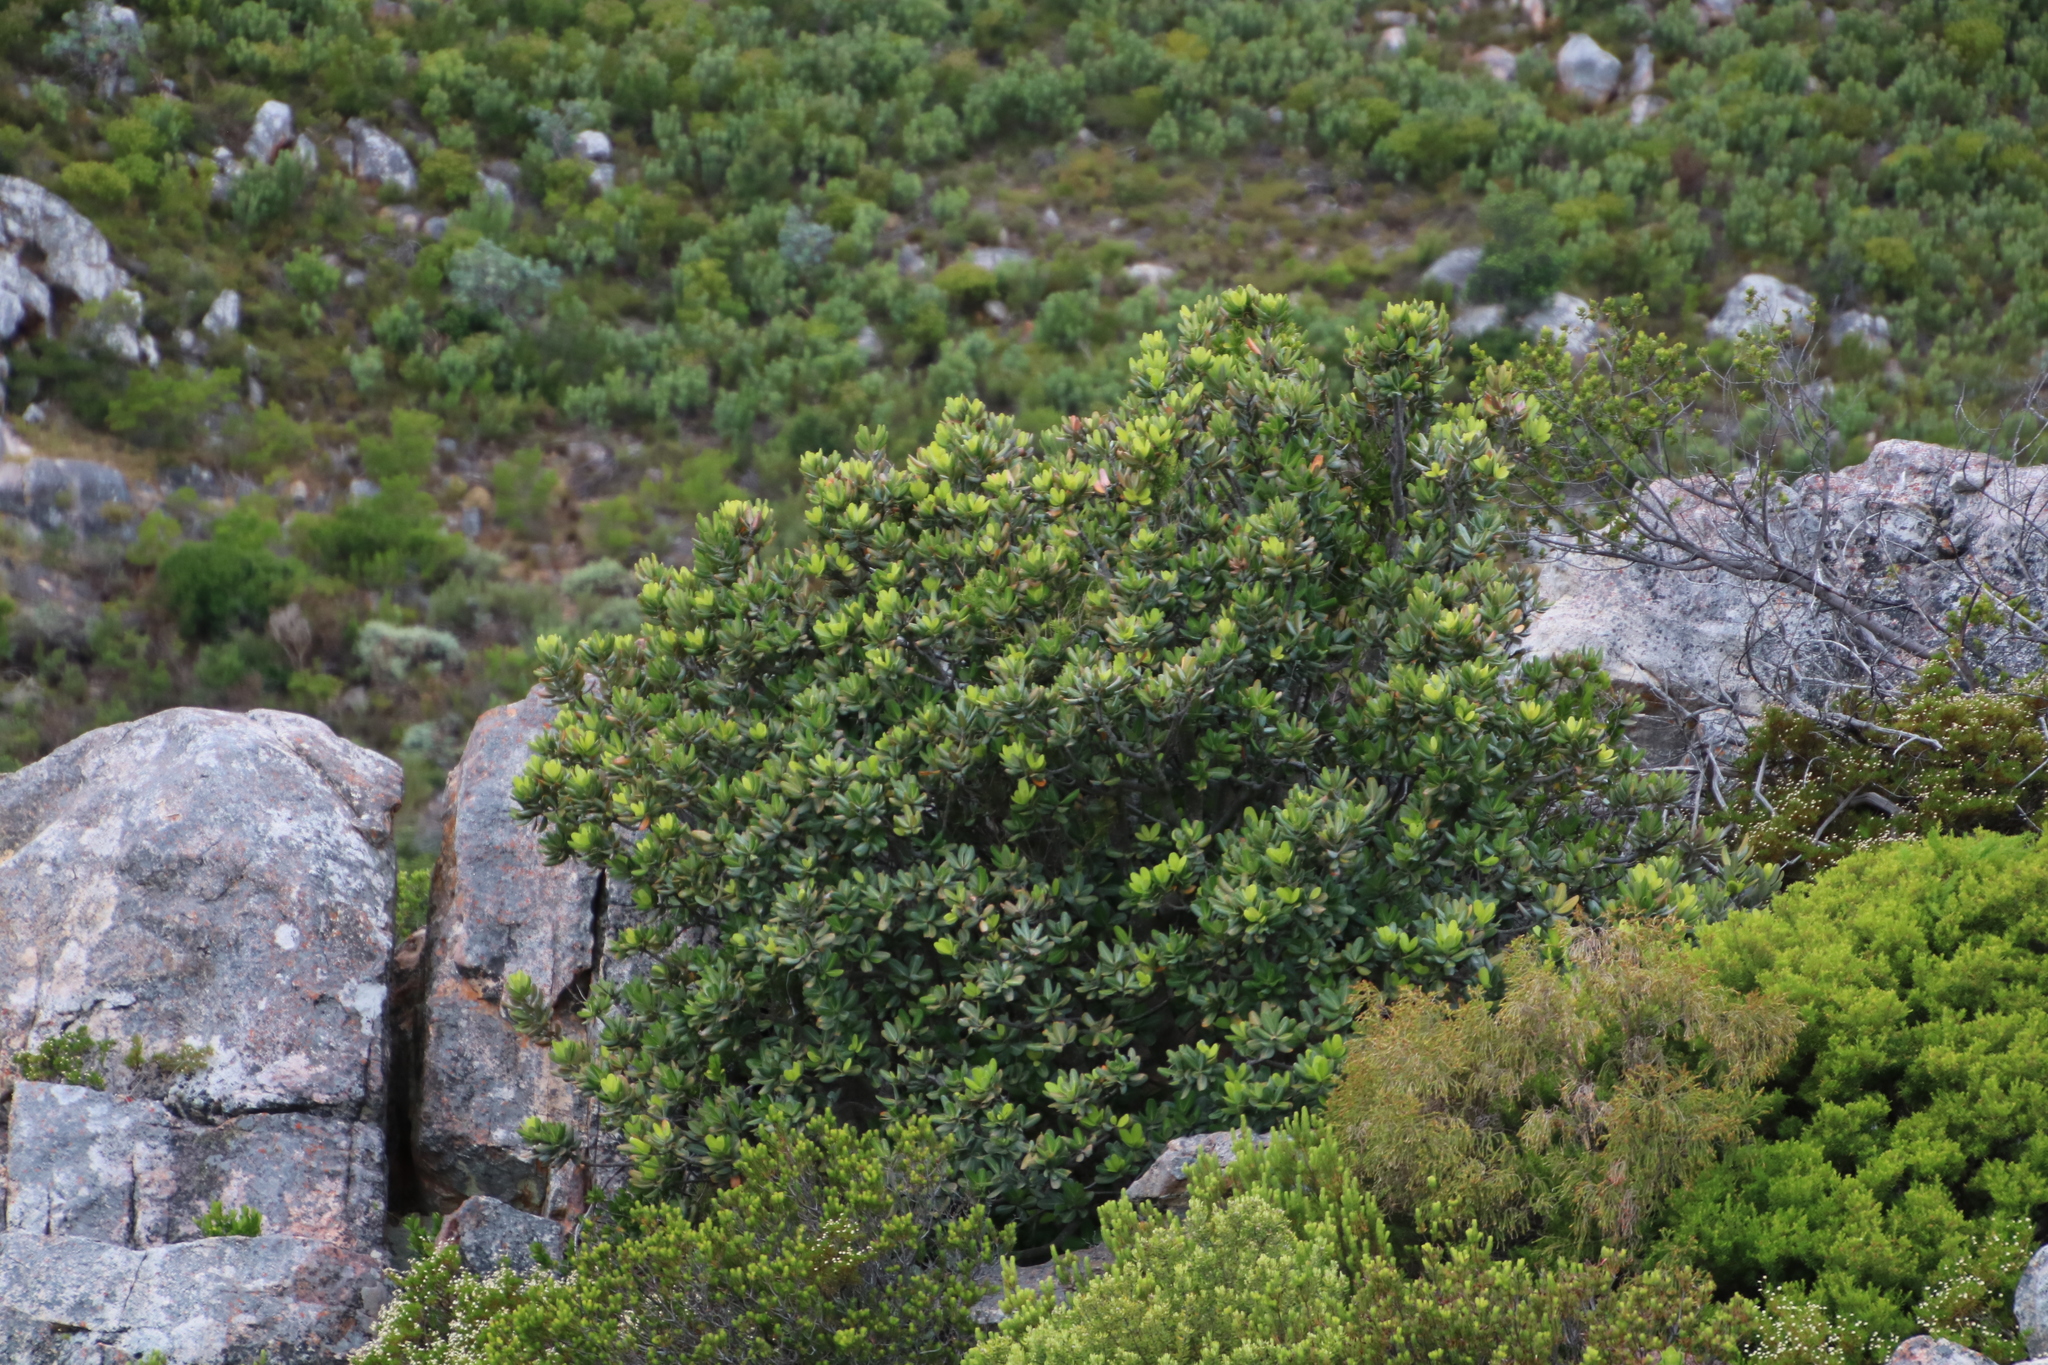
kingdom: Plantae
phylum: Tracheophyta
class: Magnoliopsida
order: Sapindales
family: Anacardiaceae
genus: Heeria
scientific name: Heeria argentea
